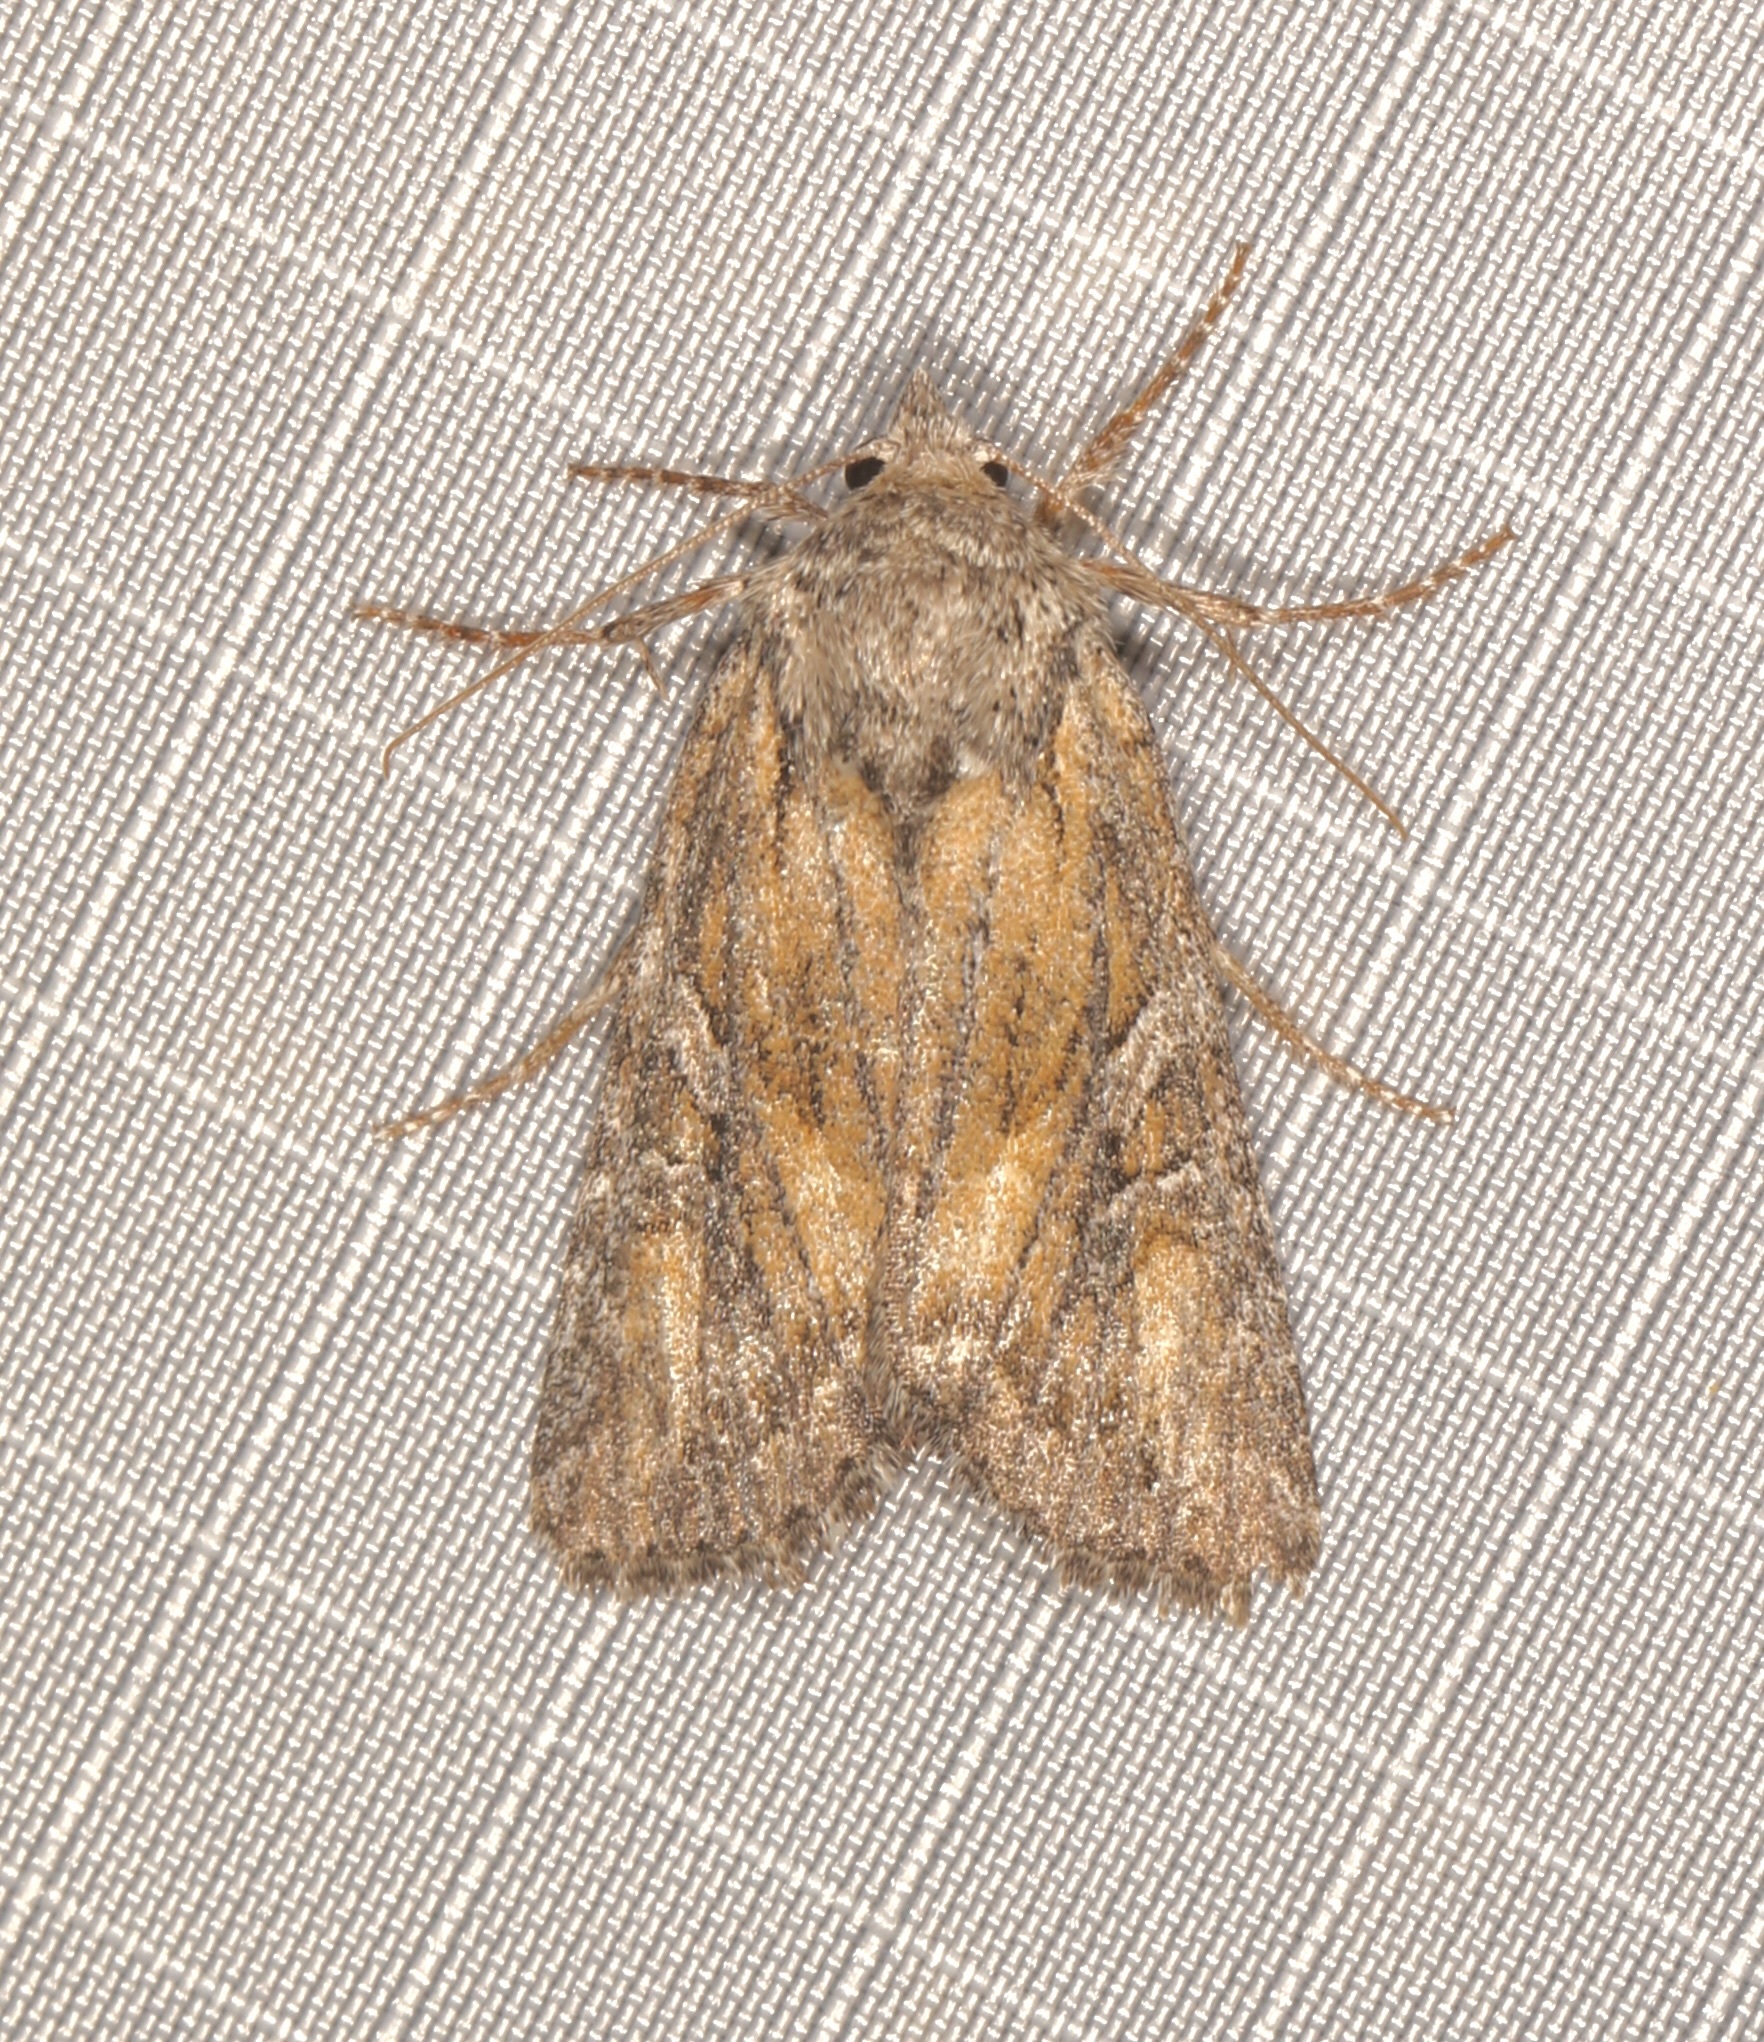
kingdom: Animalia
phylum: Arthropoda
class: Insecta
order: Lepidoptera
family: Noctuidae
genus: Aseptis
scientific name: Aseptis characta
